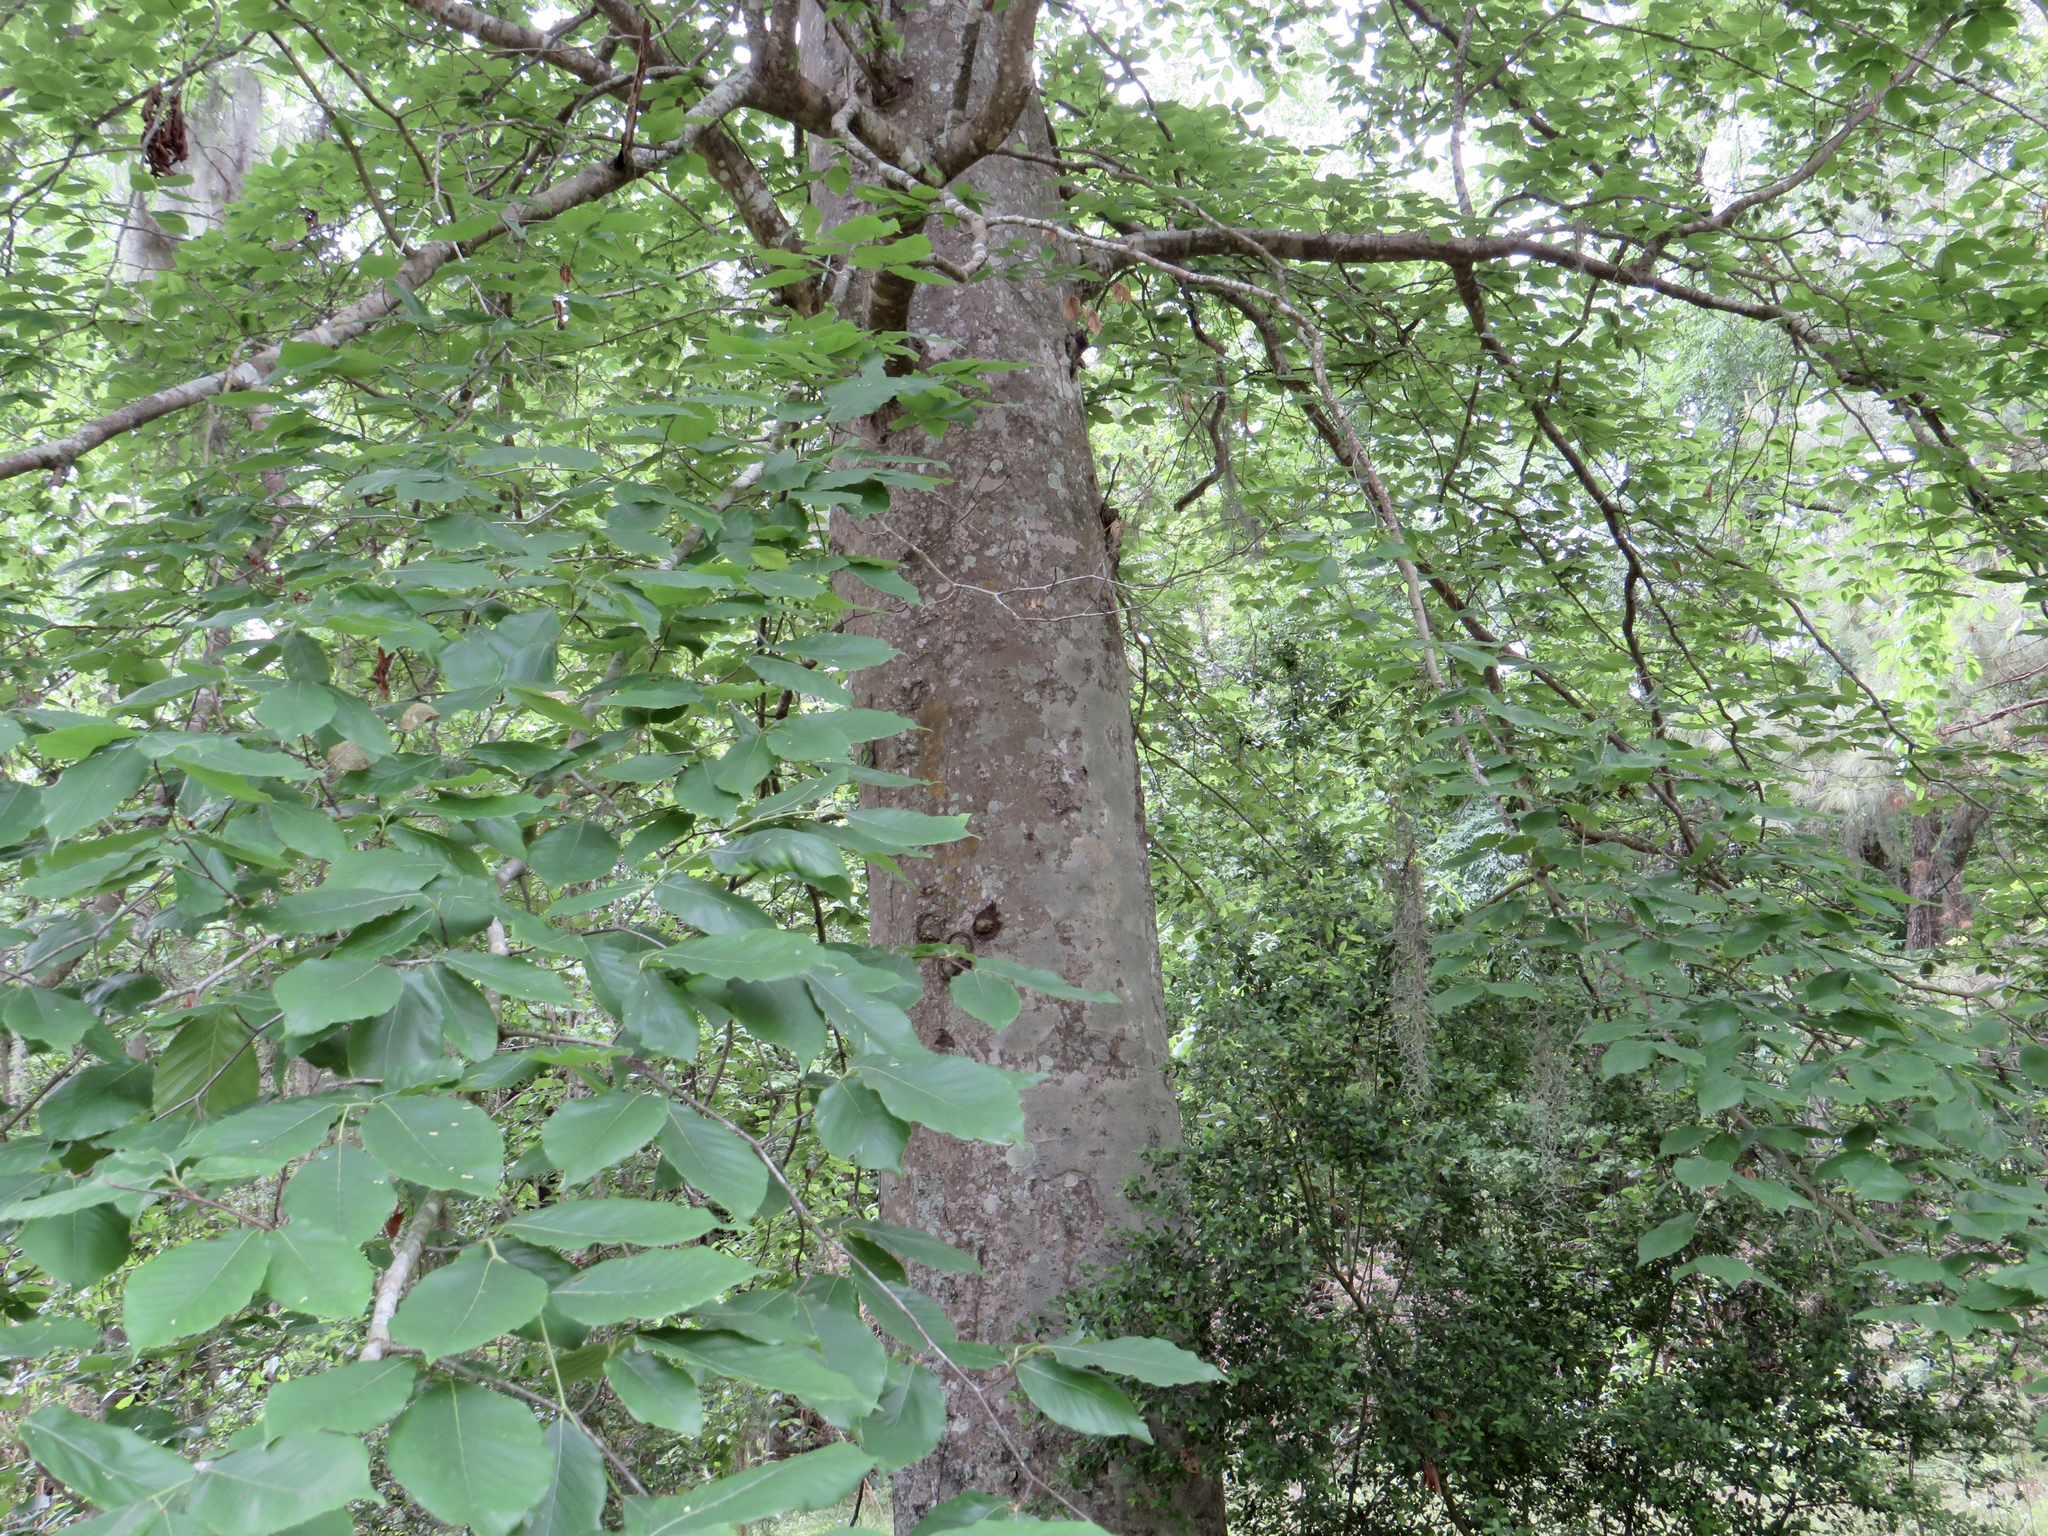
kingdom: Plantae
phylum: Tracheophyta
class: Magnoliopsida
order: Fagales
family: Fagaceae
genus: Fagus
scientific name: Fagus grandifolia
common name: American beech
